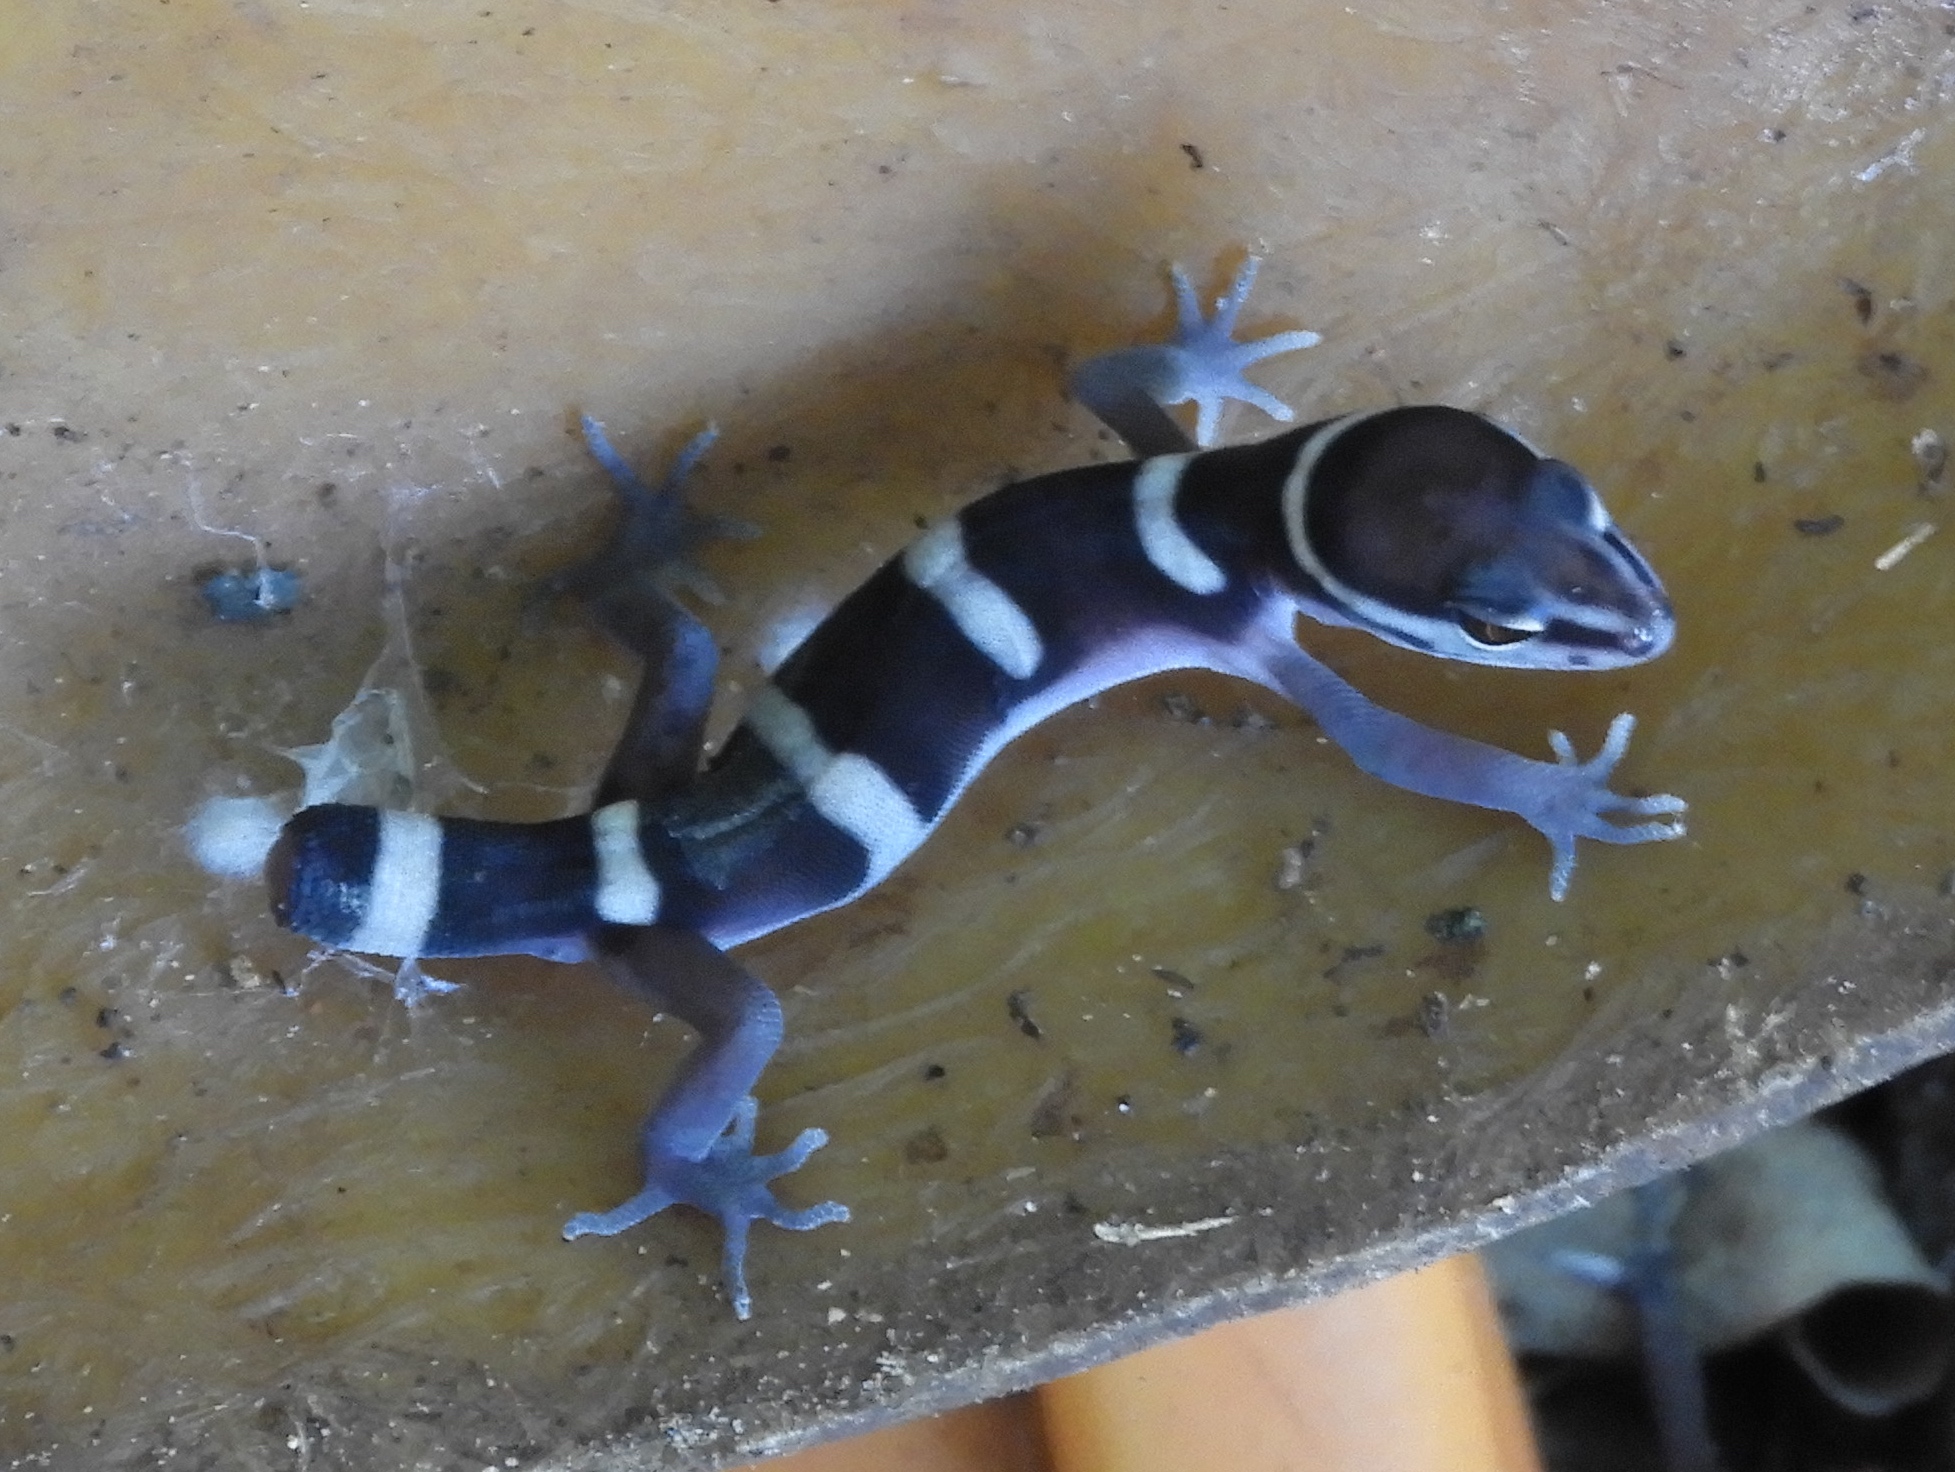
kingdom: Animalia
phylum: Chordata
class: Squamata
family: Eublepharidae
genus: Coleonyx
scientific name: Coleonyx fasciatus
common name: Black banded gecko
